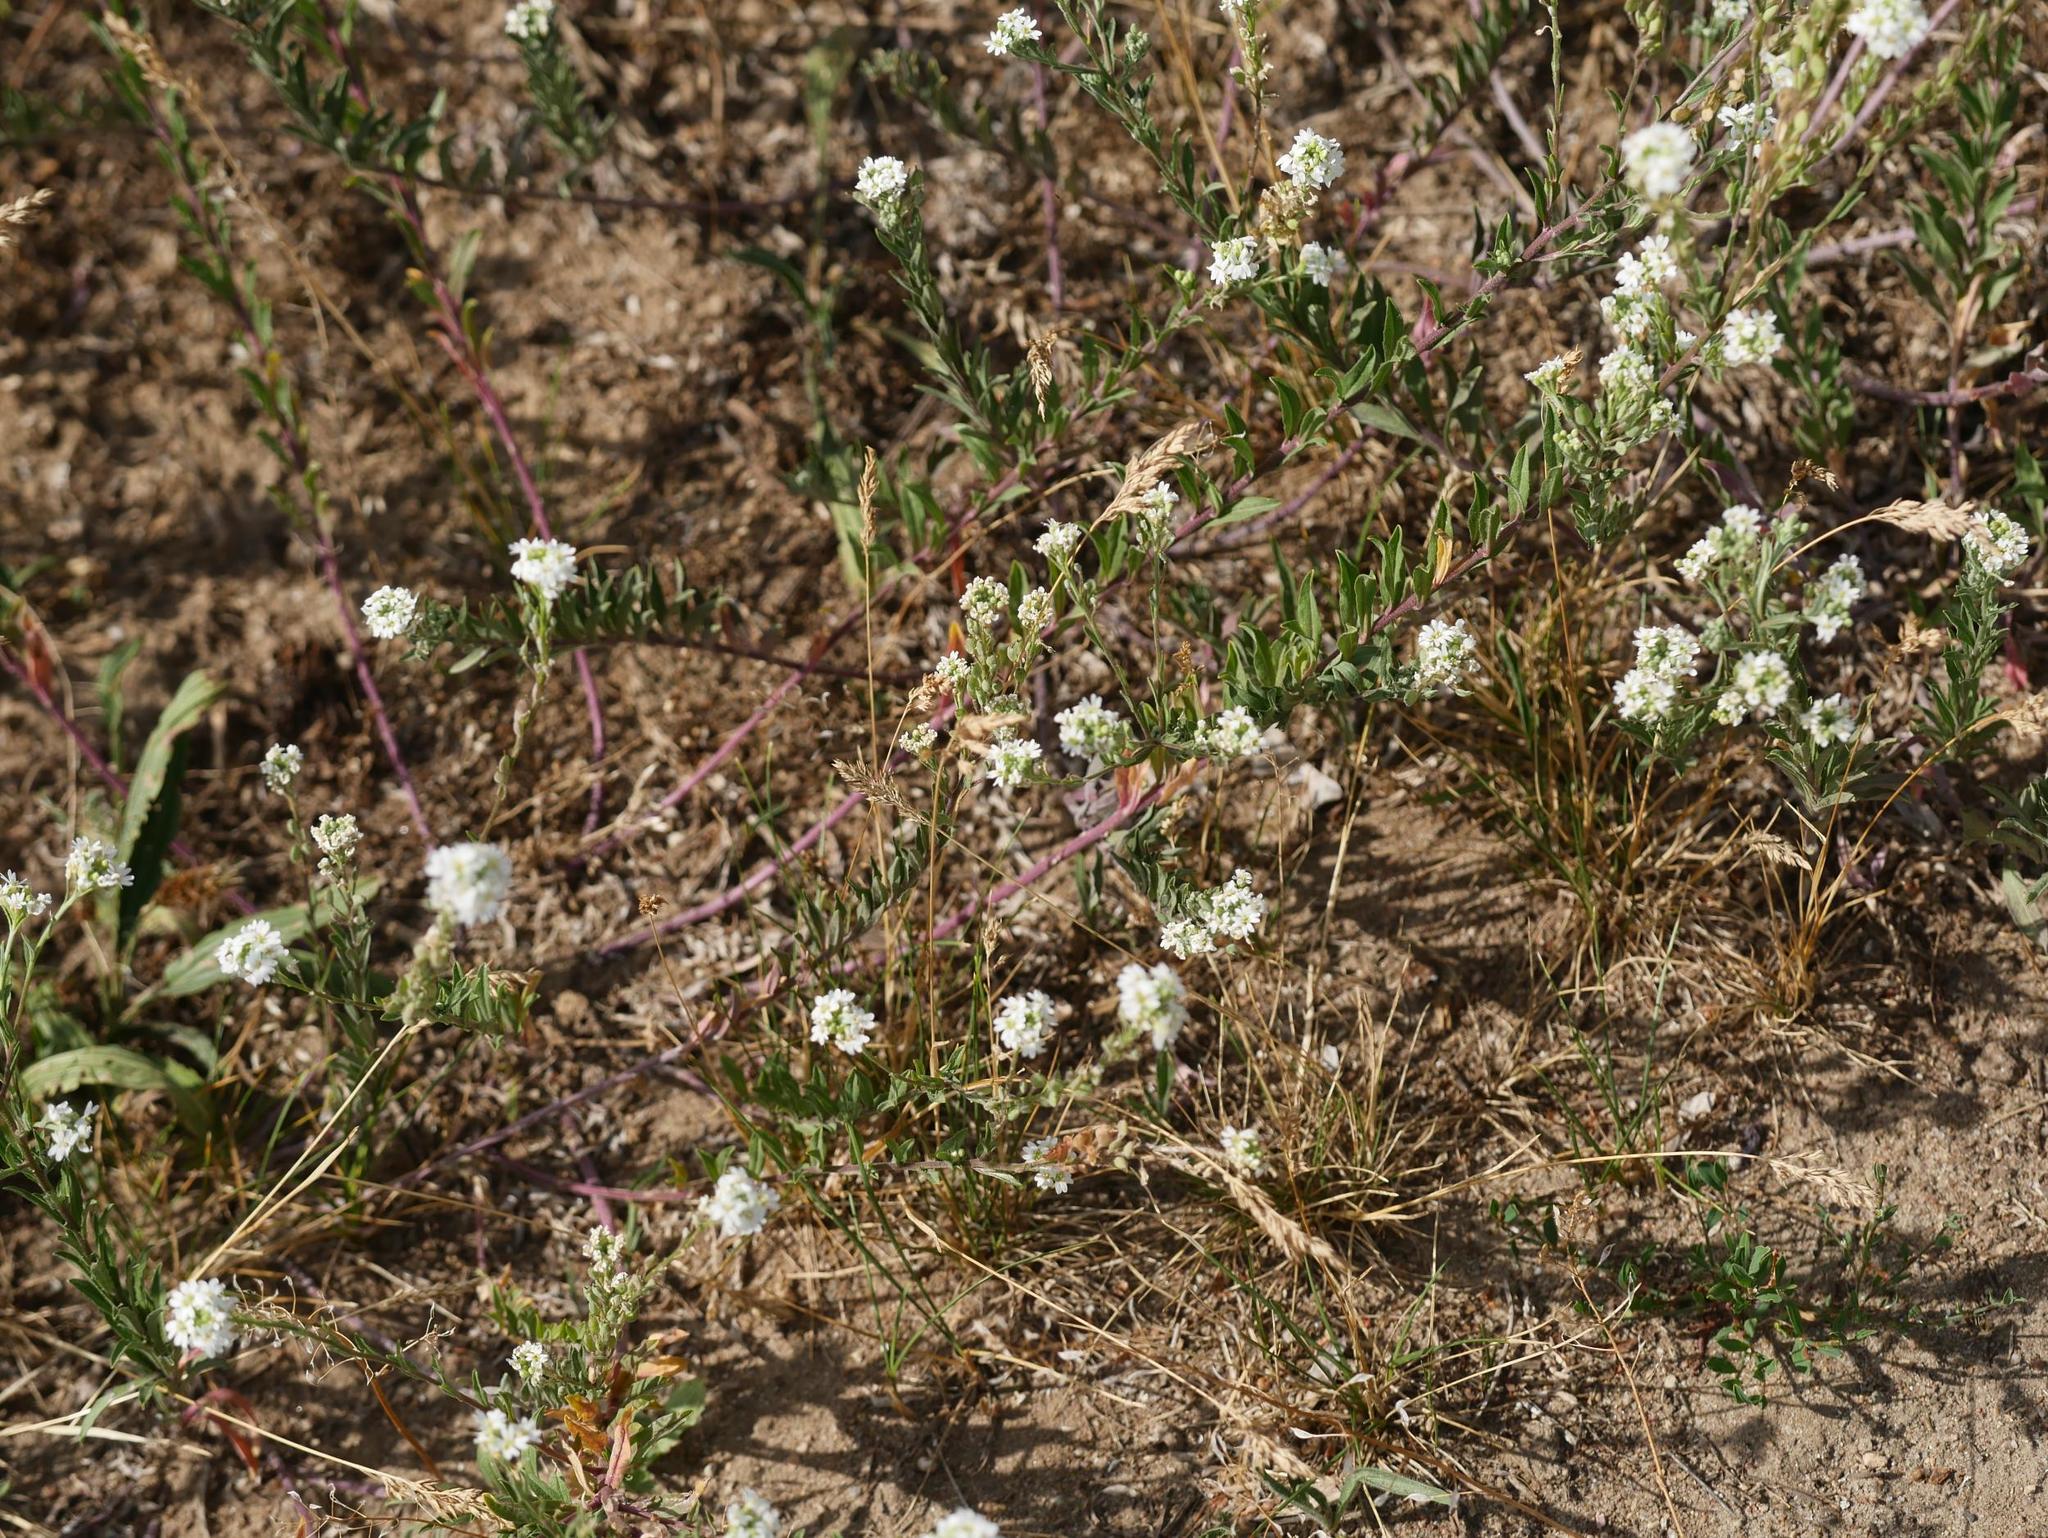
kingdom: Plantae
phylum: Tracheophyta
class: Magnoliopsida
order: Brassicales
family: Brassicaceae
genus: Berteroa
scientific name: Berteroa incana
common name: Hoary alison
